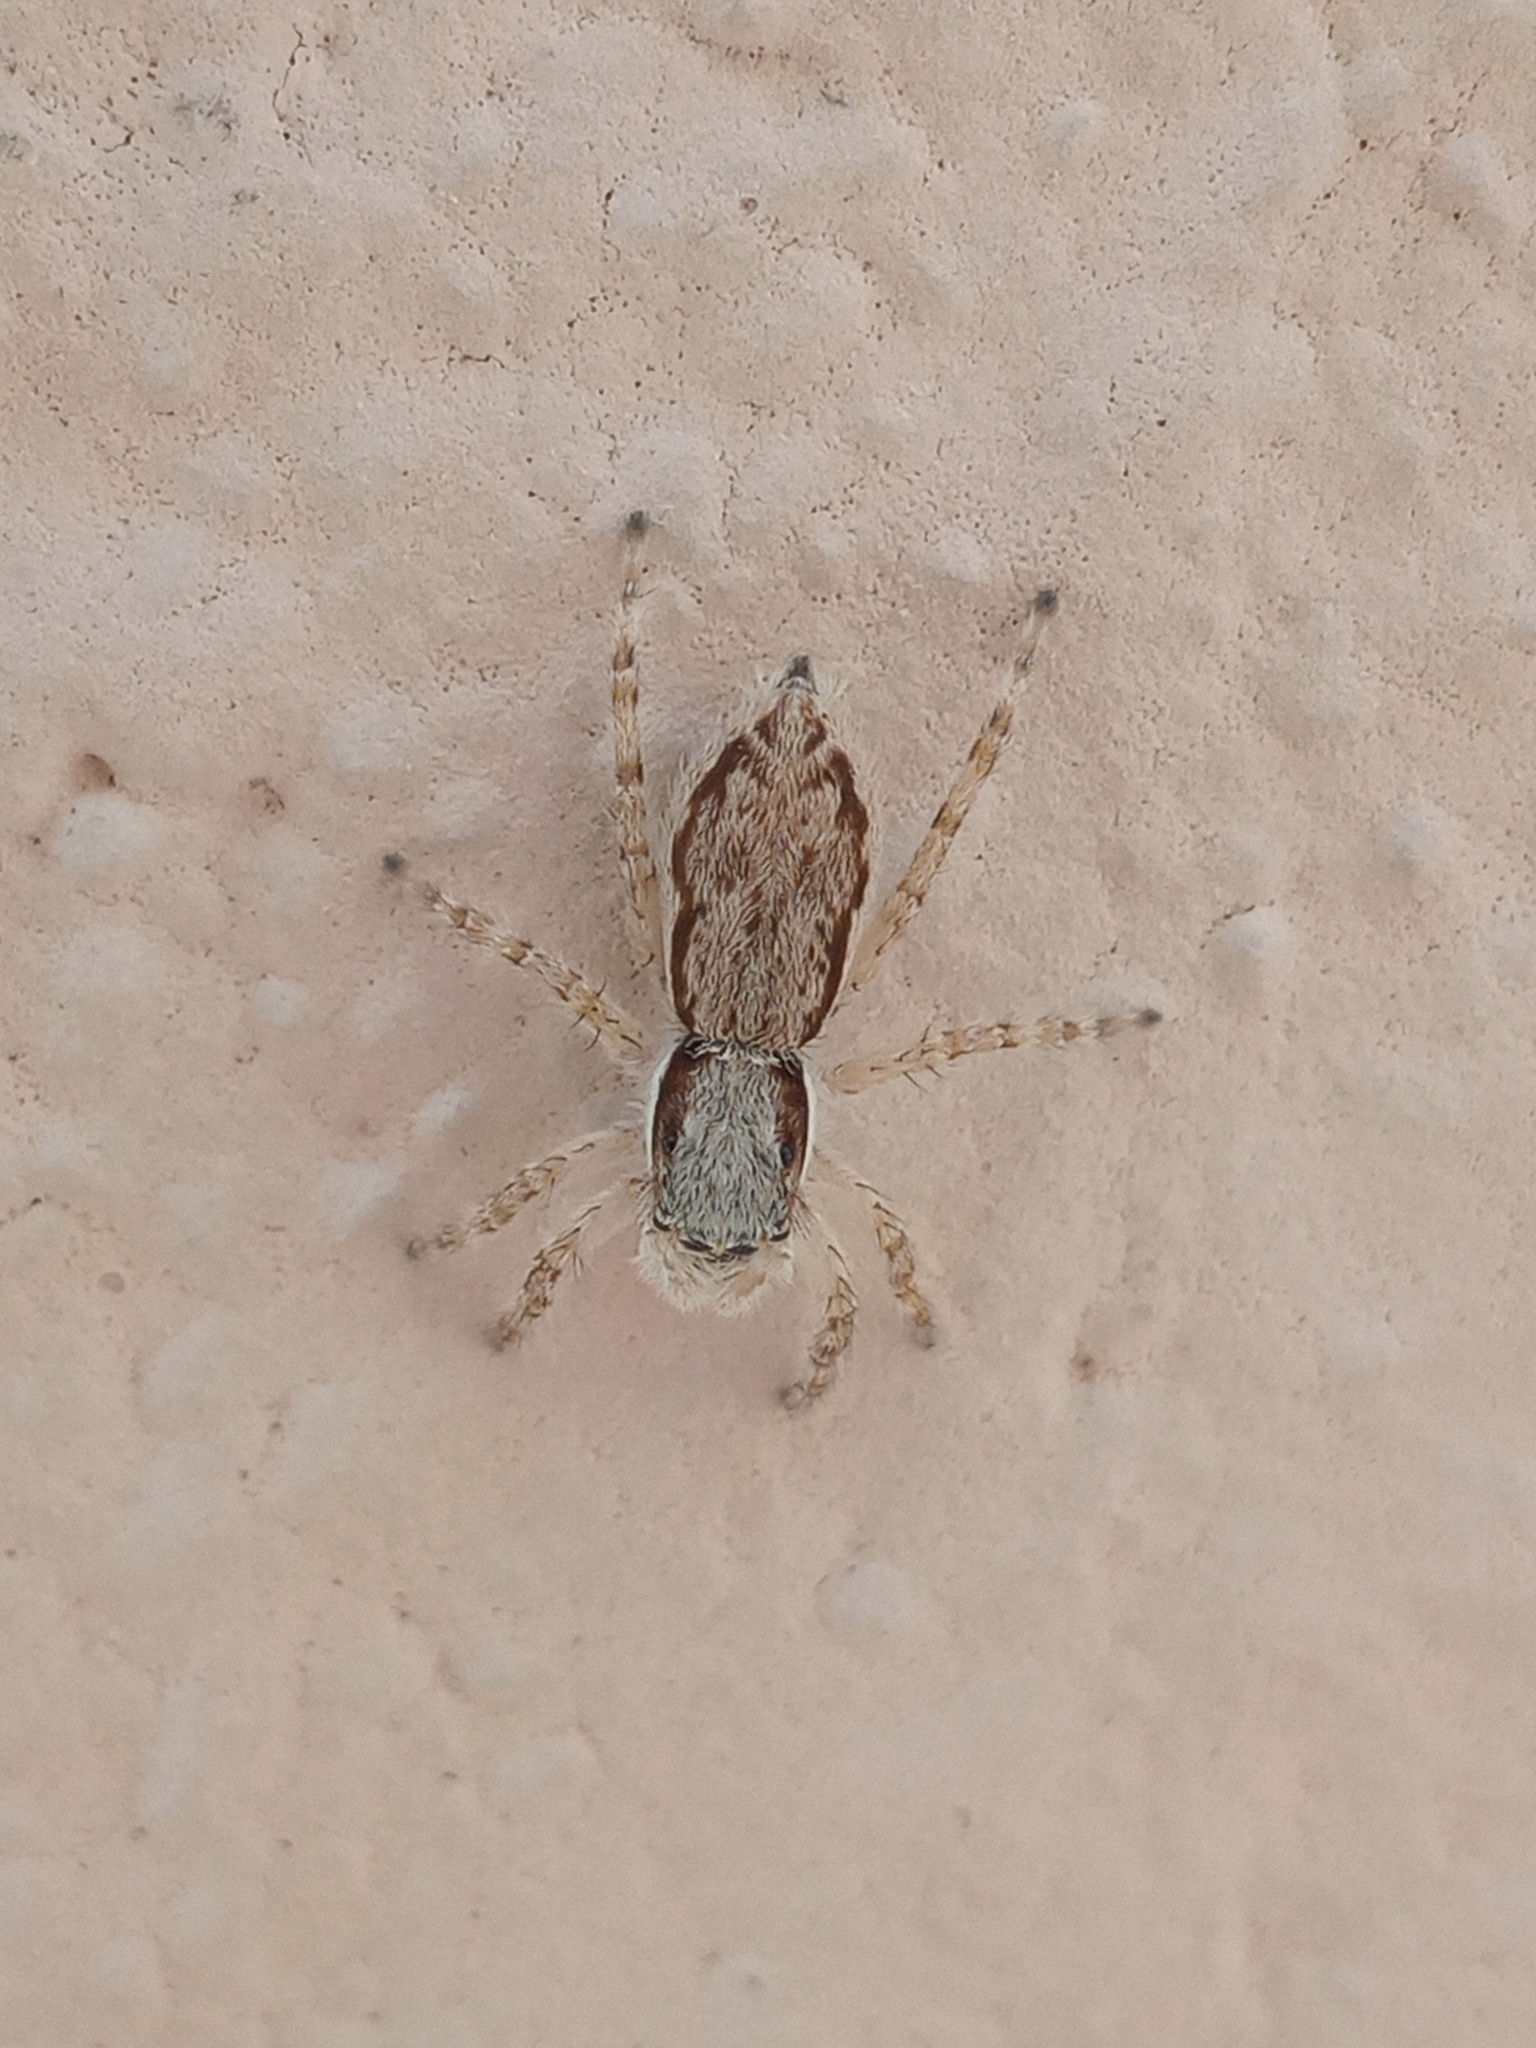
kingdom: Animalia
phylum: Arthropoda
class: Arachnida
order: Araneae
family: Salticidae
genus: Menemerus
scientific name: Menemerus bivittatus
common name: Gray wall jumper
